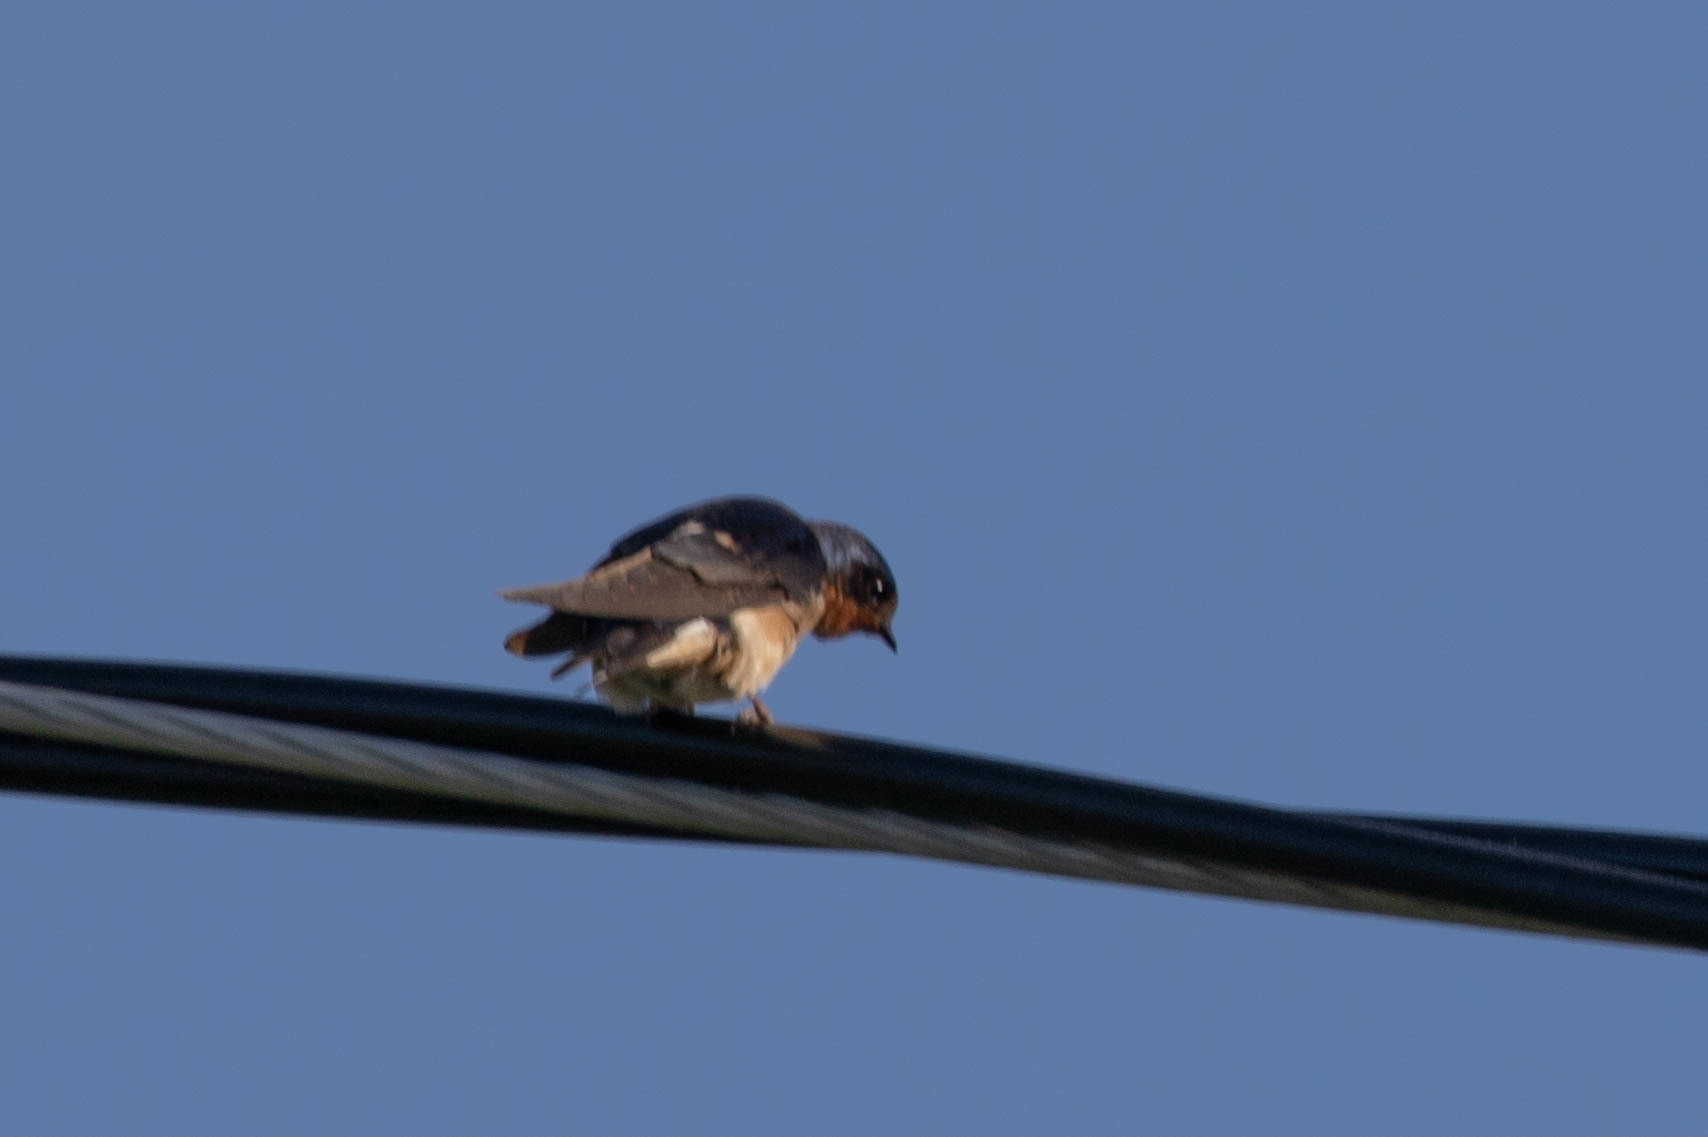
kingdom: Animalia
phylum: Chordata
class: Aves
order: Passeriformes
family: Hirundinidae
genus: Hirundo
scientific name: Hirundo rustica
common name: Barn swallow
